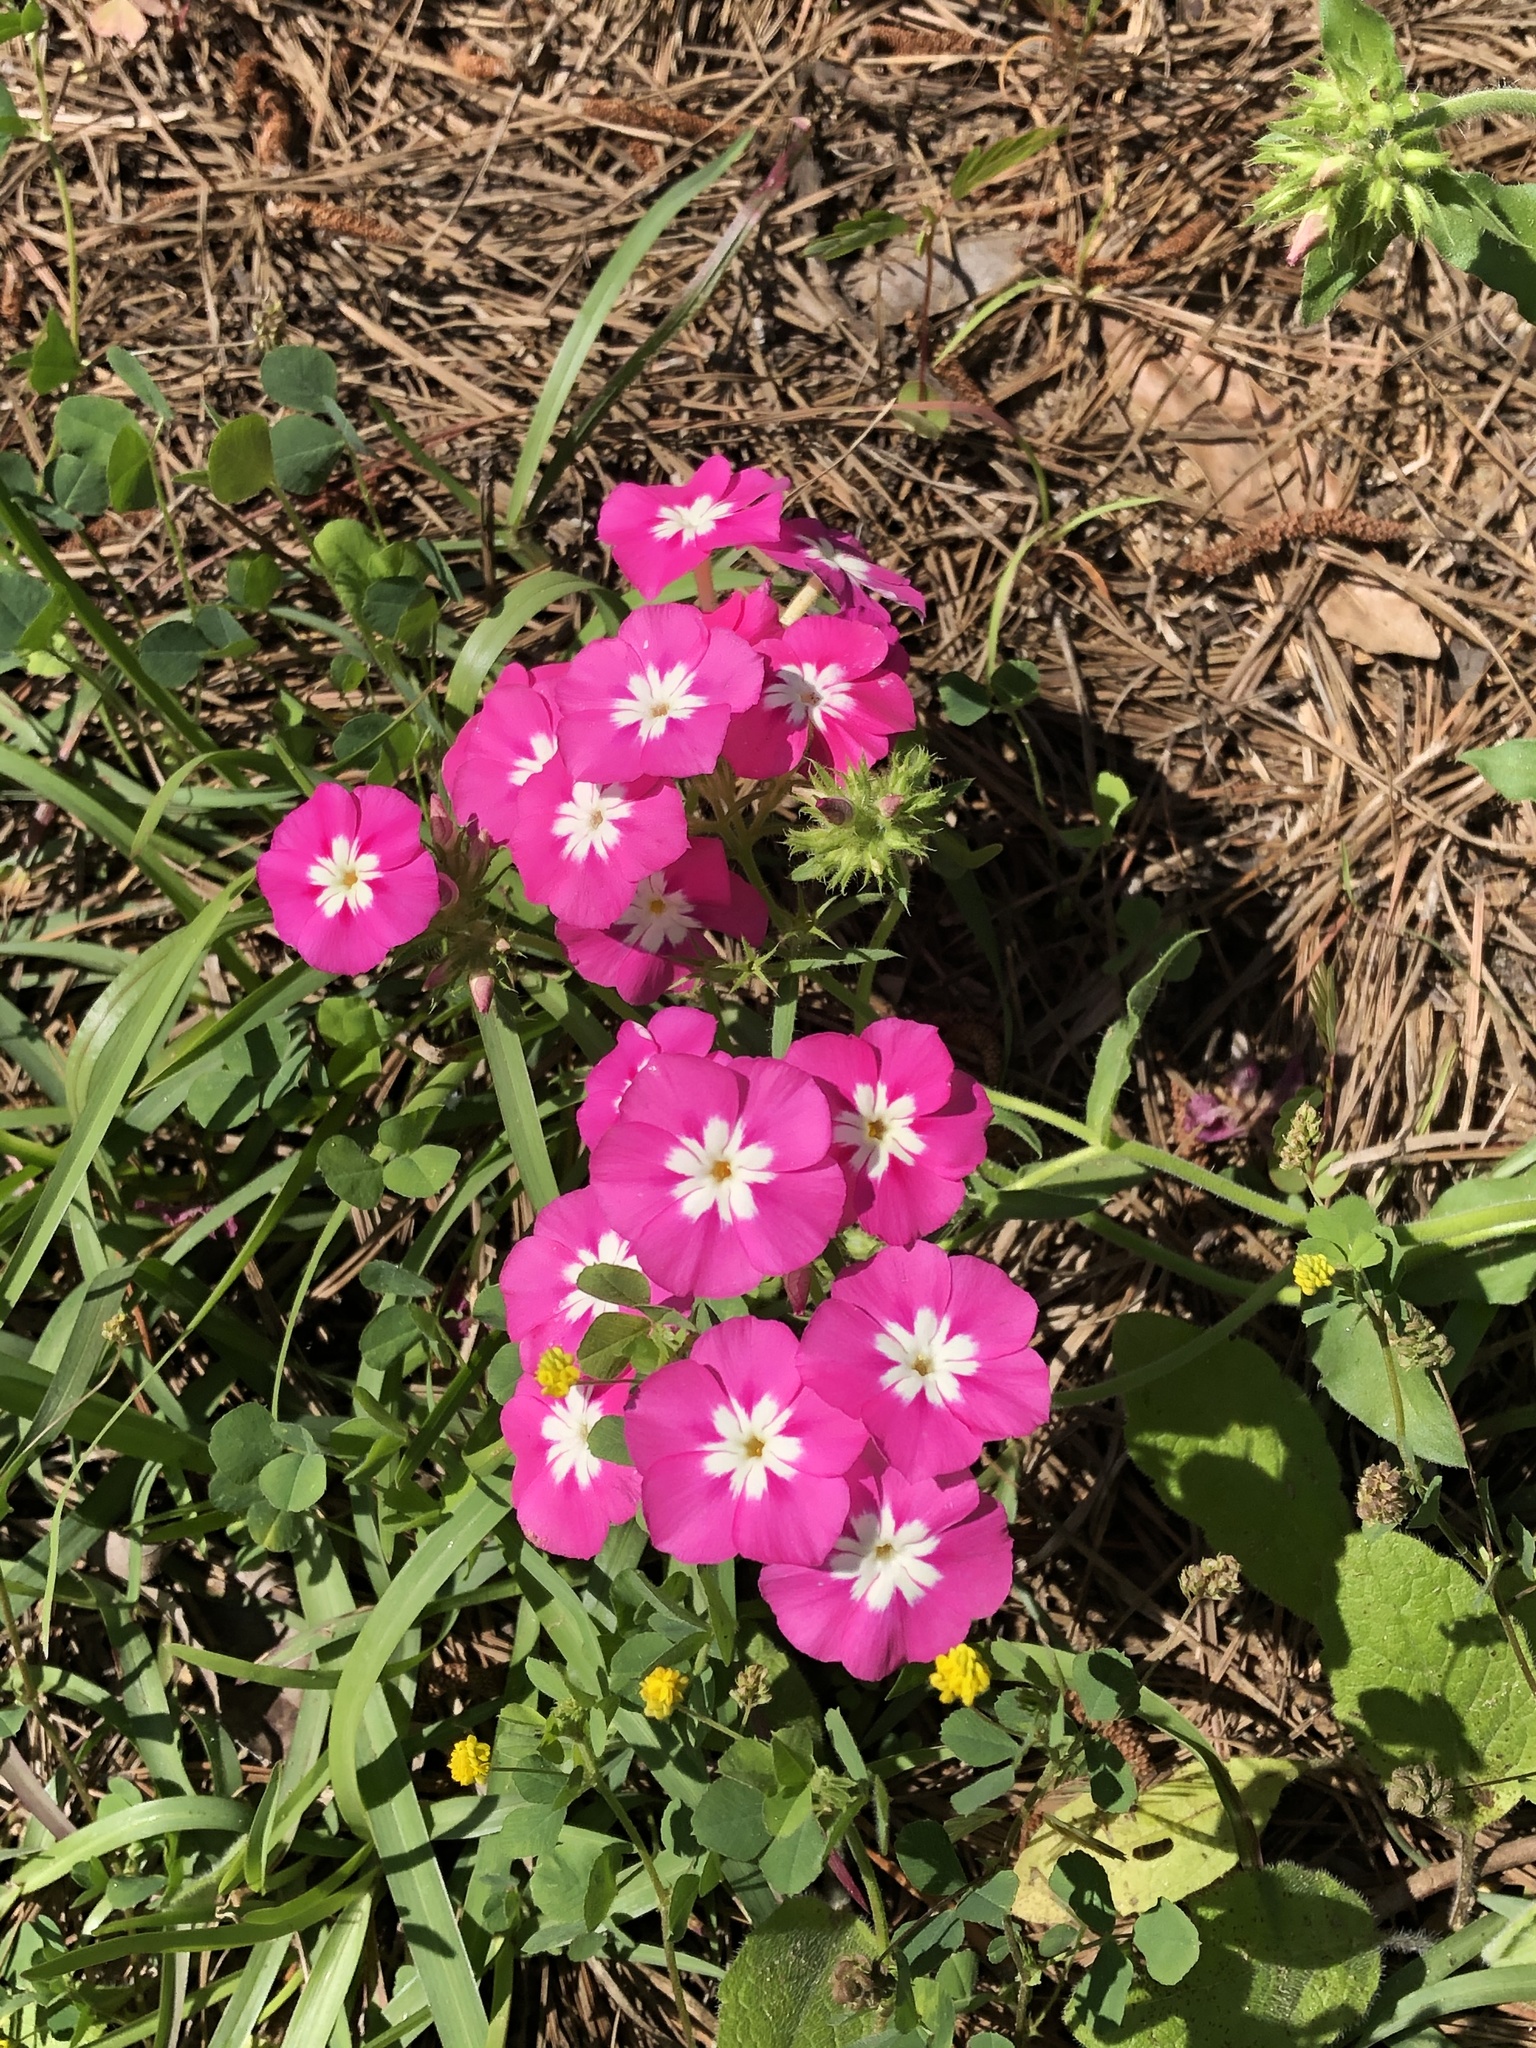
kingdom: Plantae
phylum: Tracheophyta
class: Magnoliopsida
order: Ericales
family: Polemoniaceae
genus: Phlox
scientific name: Phlox drummondii
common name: Drummond's phlox
